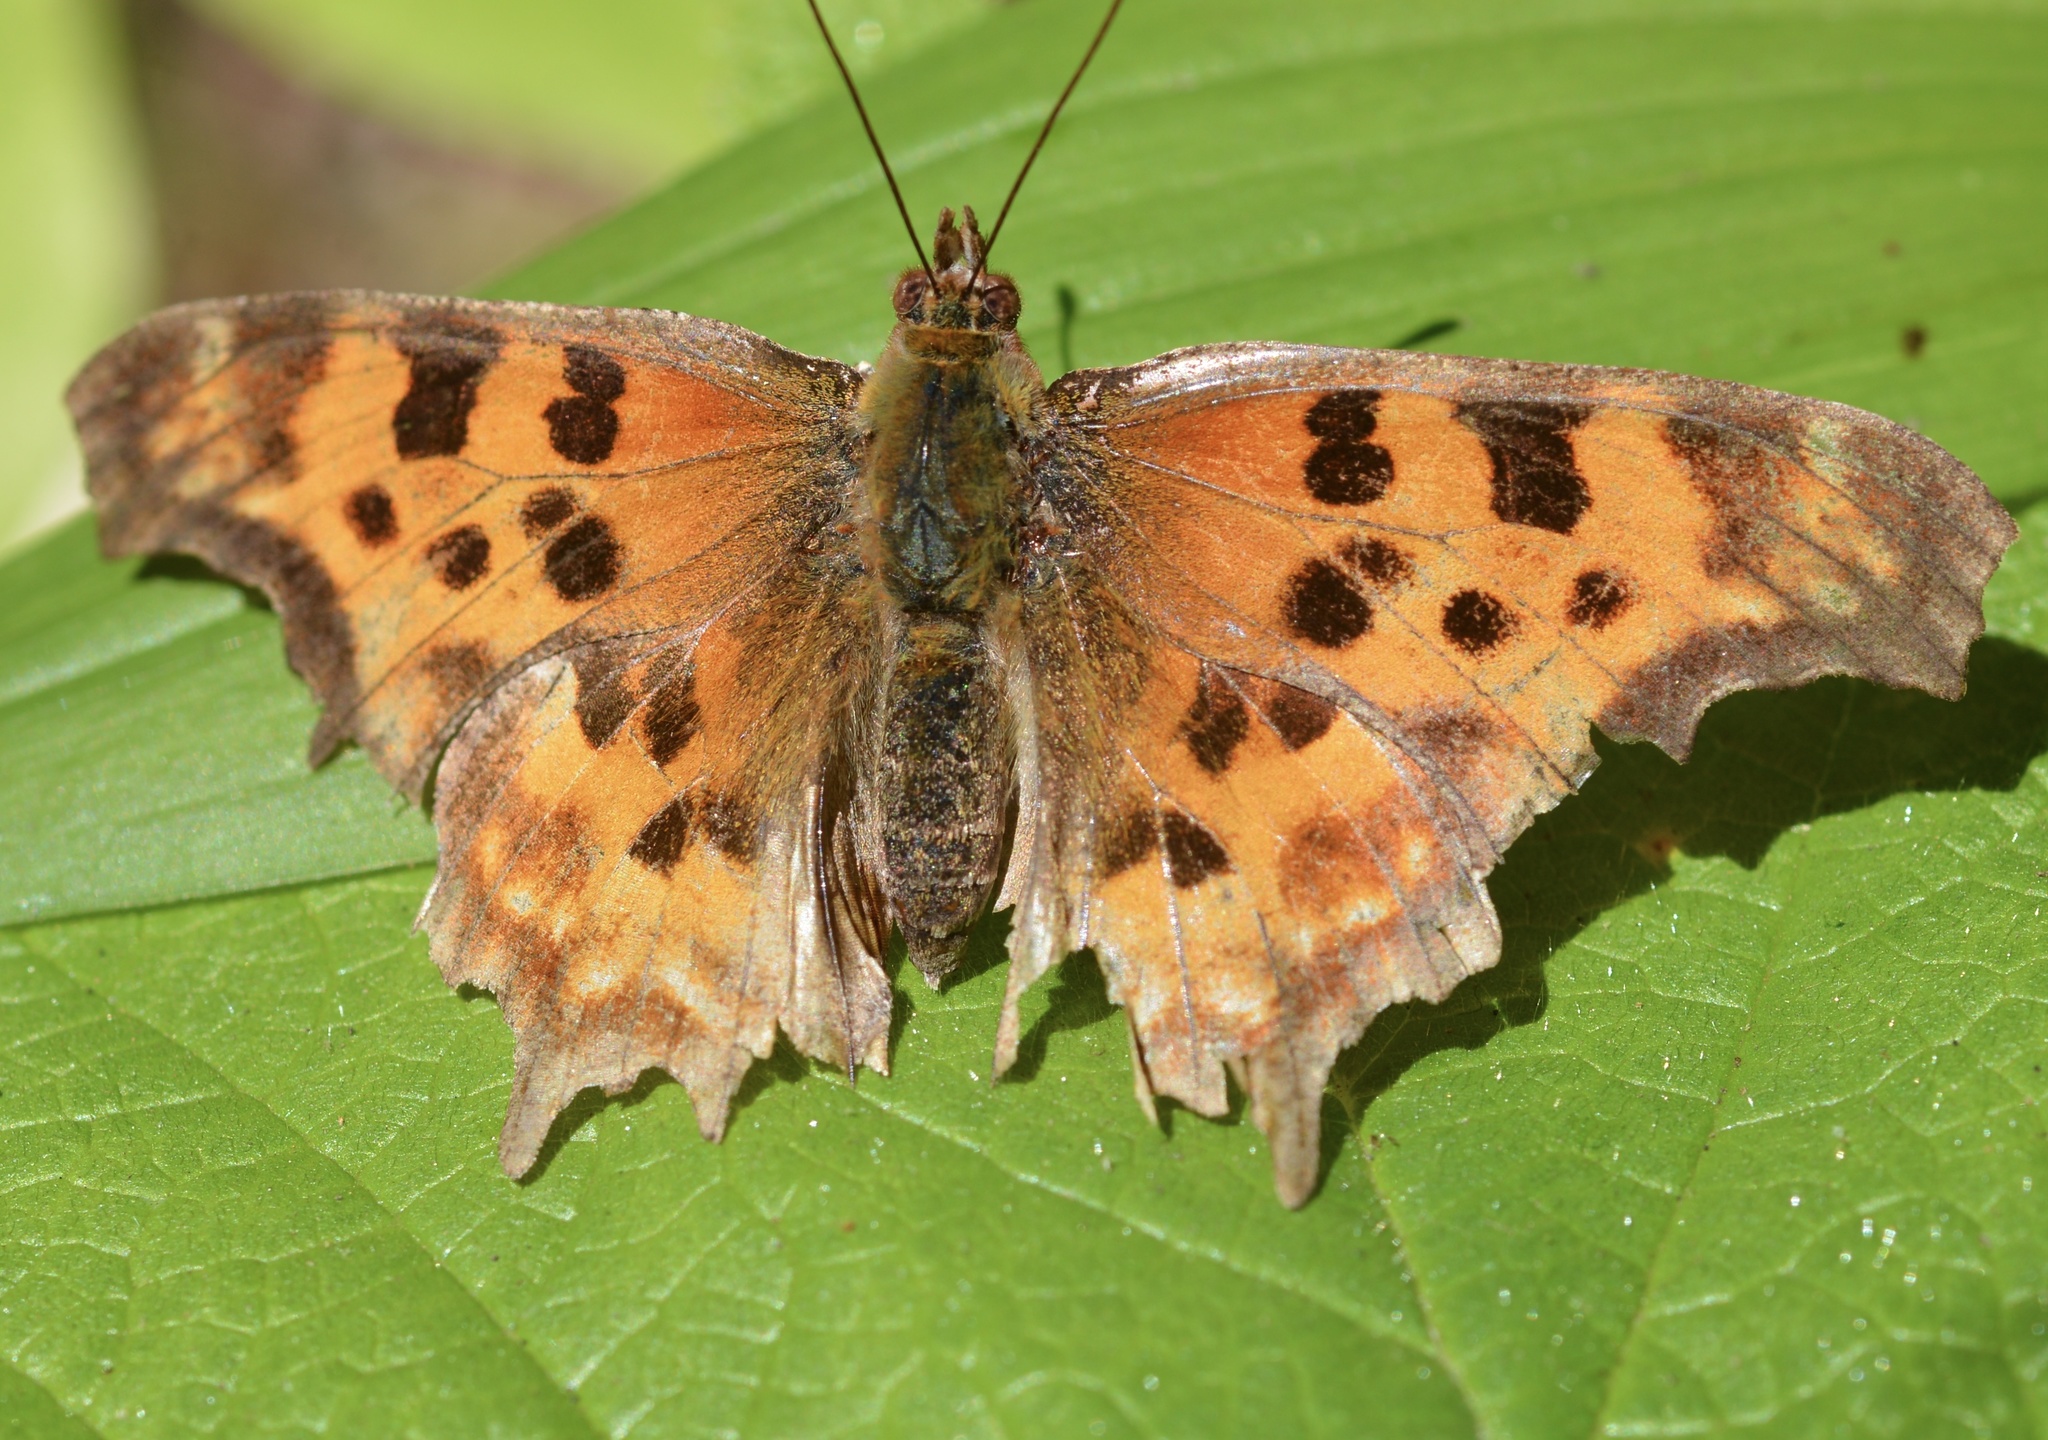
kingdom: Animalia
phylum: Arthropoda
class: Insecta
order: Lepidoptera
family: Nymphalidae
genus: Polygonia
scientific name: Polygonia satyrus
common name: Satyr angle wing
